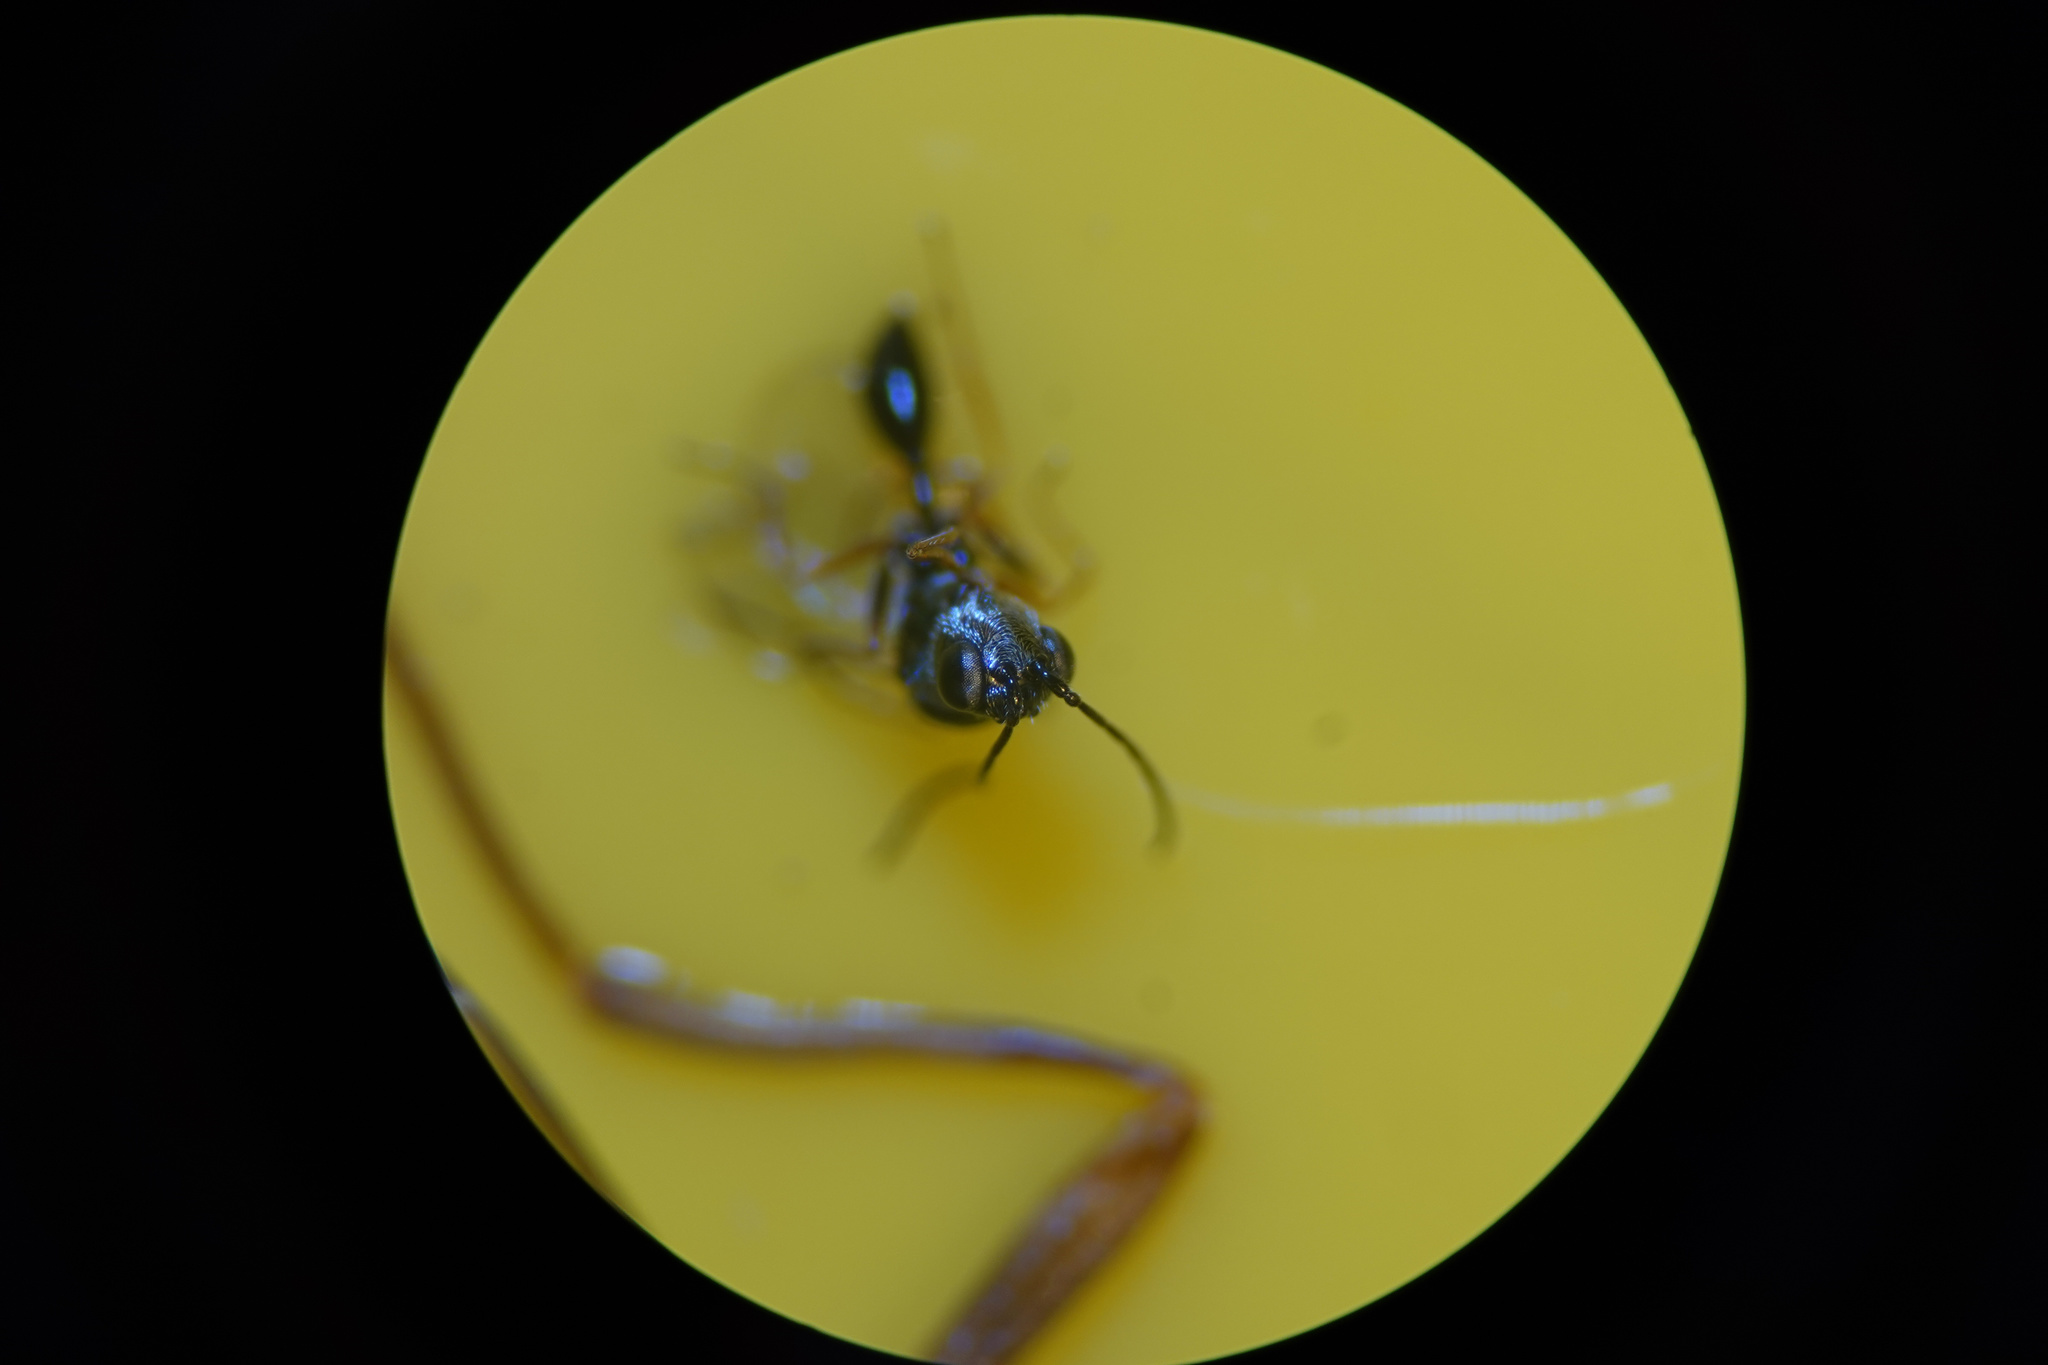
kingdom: Animalia
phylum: Arthropoda
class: Insecta
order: Hymenoptera
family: Figitidae
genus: Anacharis
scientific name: Anacharis zealandica
